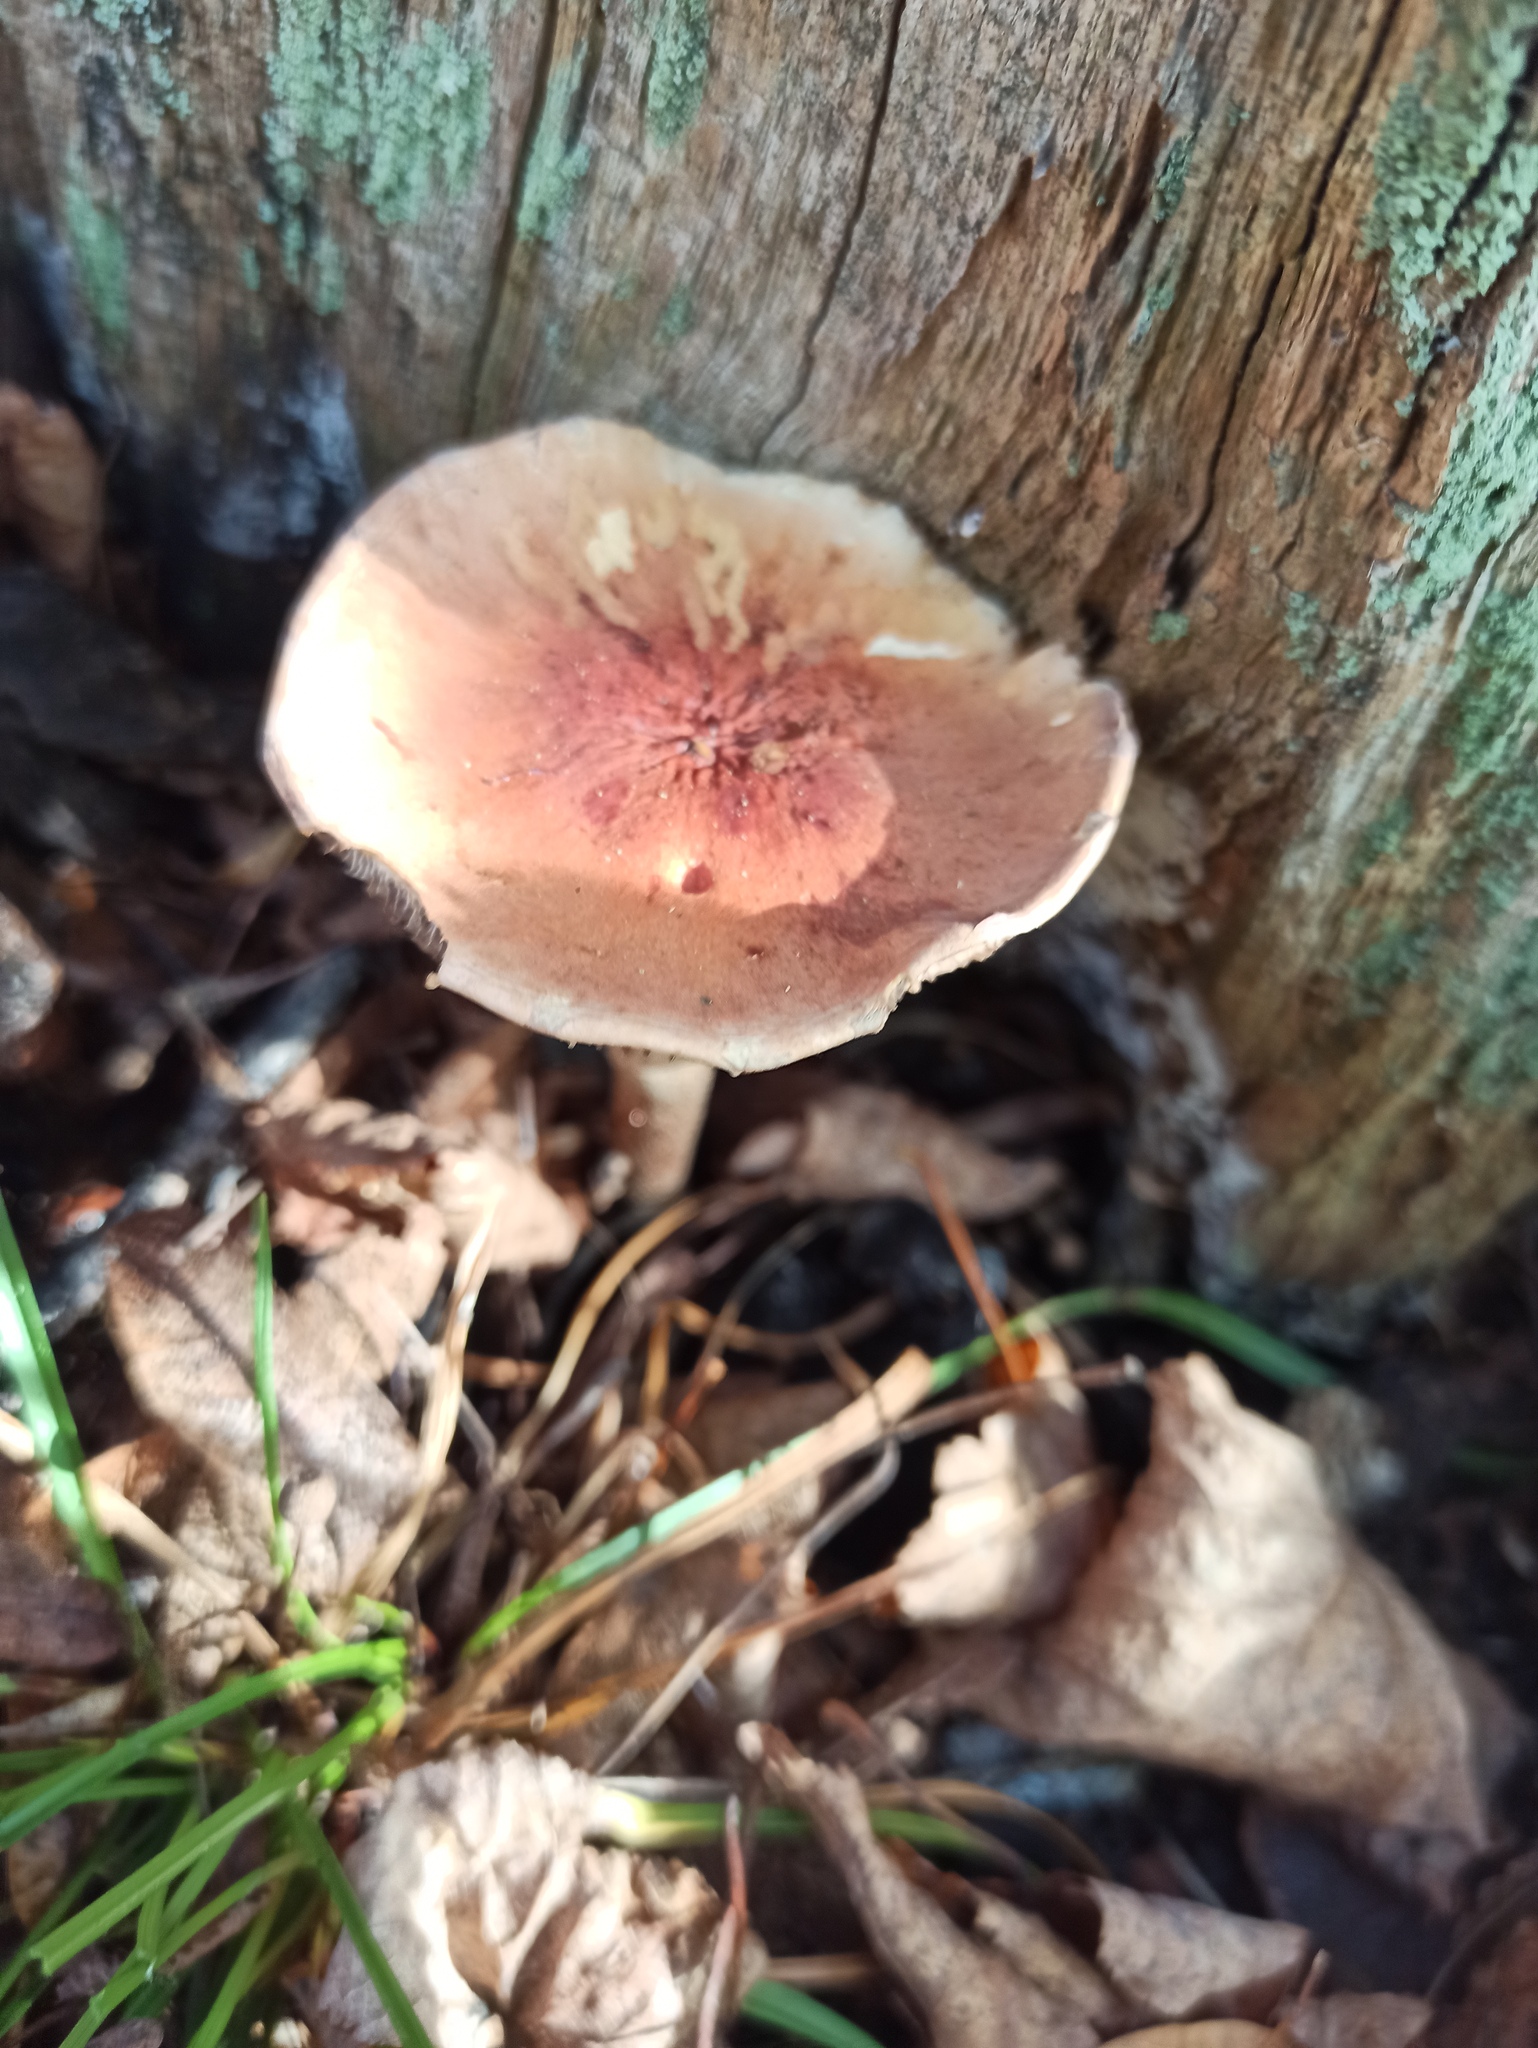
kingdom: Fungi
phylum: Basidiomycota
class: Agaricomycetes
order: Agaricales
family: Strophariaceae
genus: Hypholoma
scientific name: Hypholoma lateritium
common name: Brick caps
